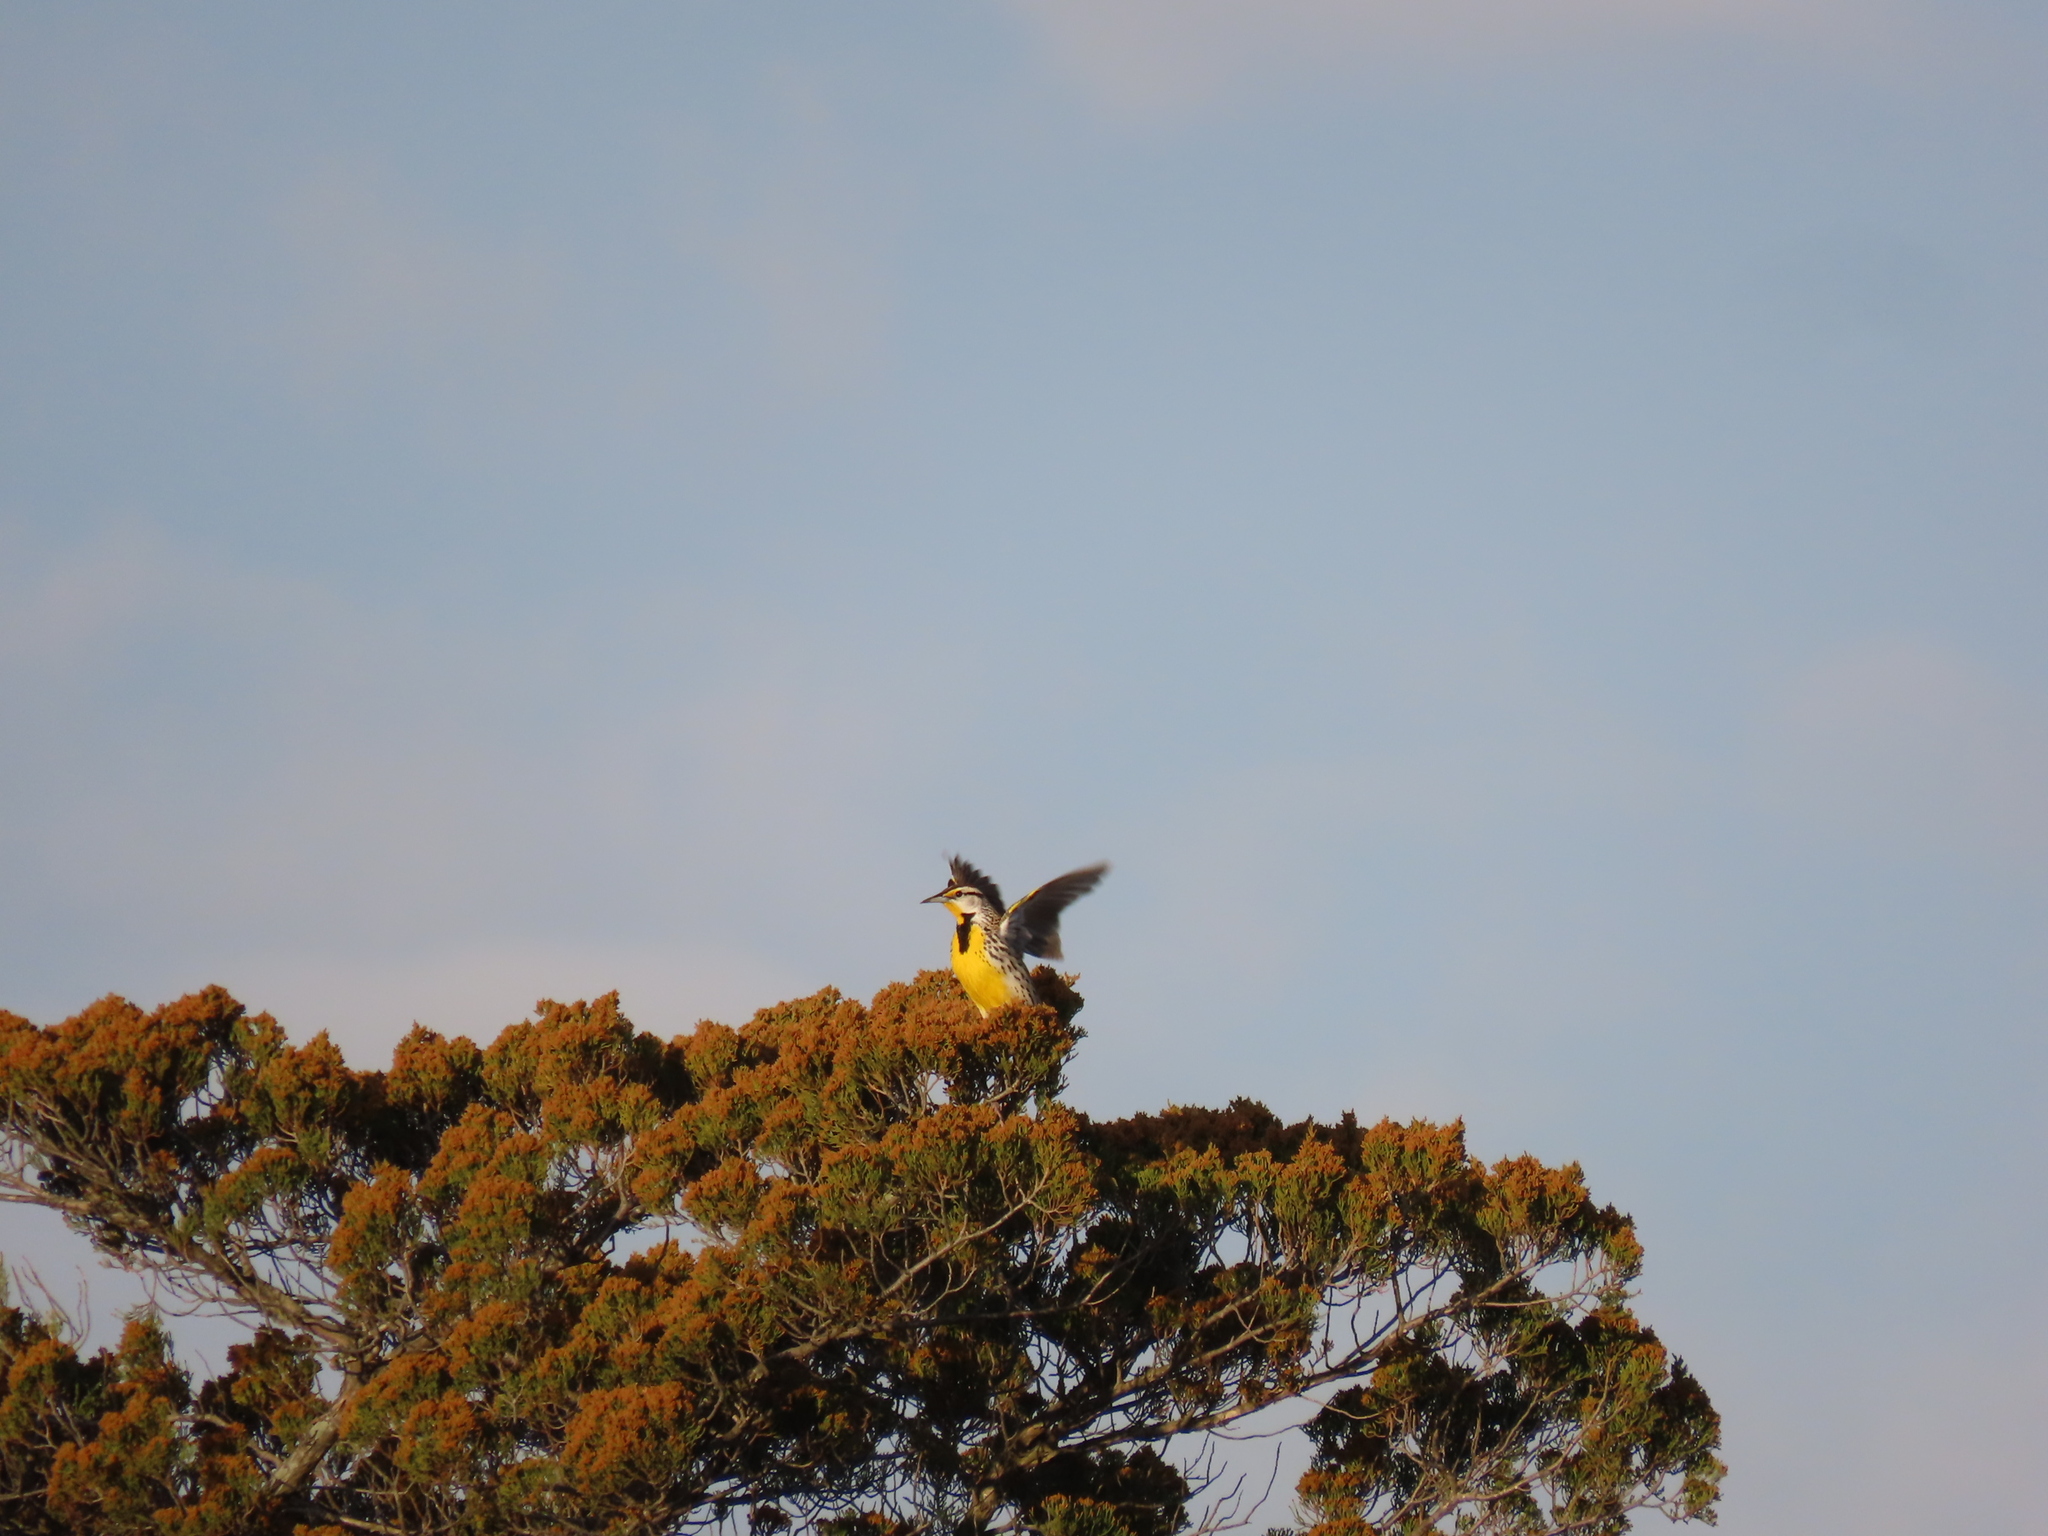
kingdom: Animalia
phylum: Chordata
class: Aves
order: Passeriformes
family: Icteridae
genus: Sturnella
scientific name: Sturnella magna
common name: Eastern meadowlark
